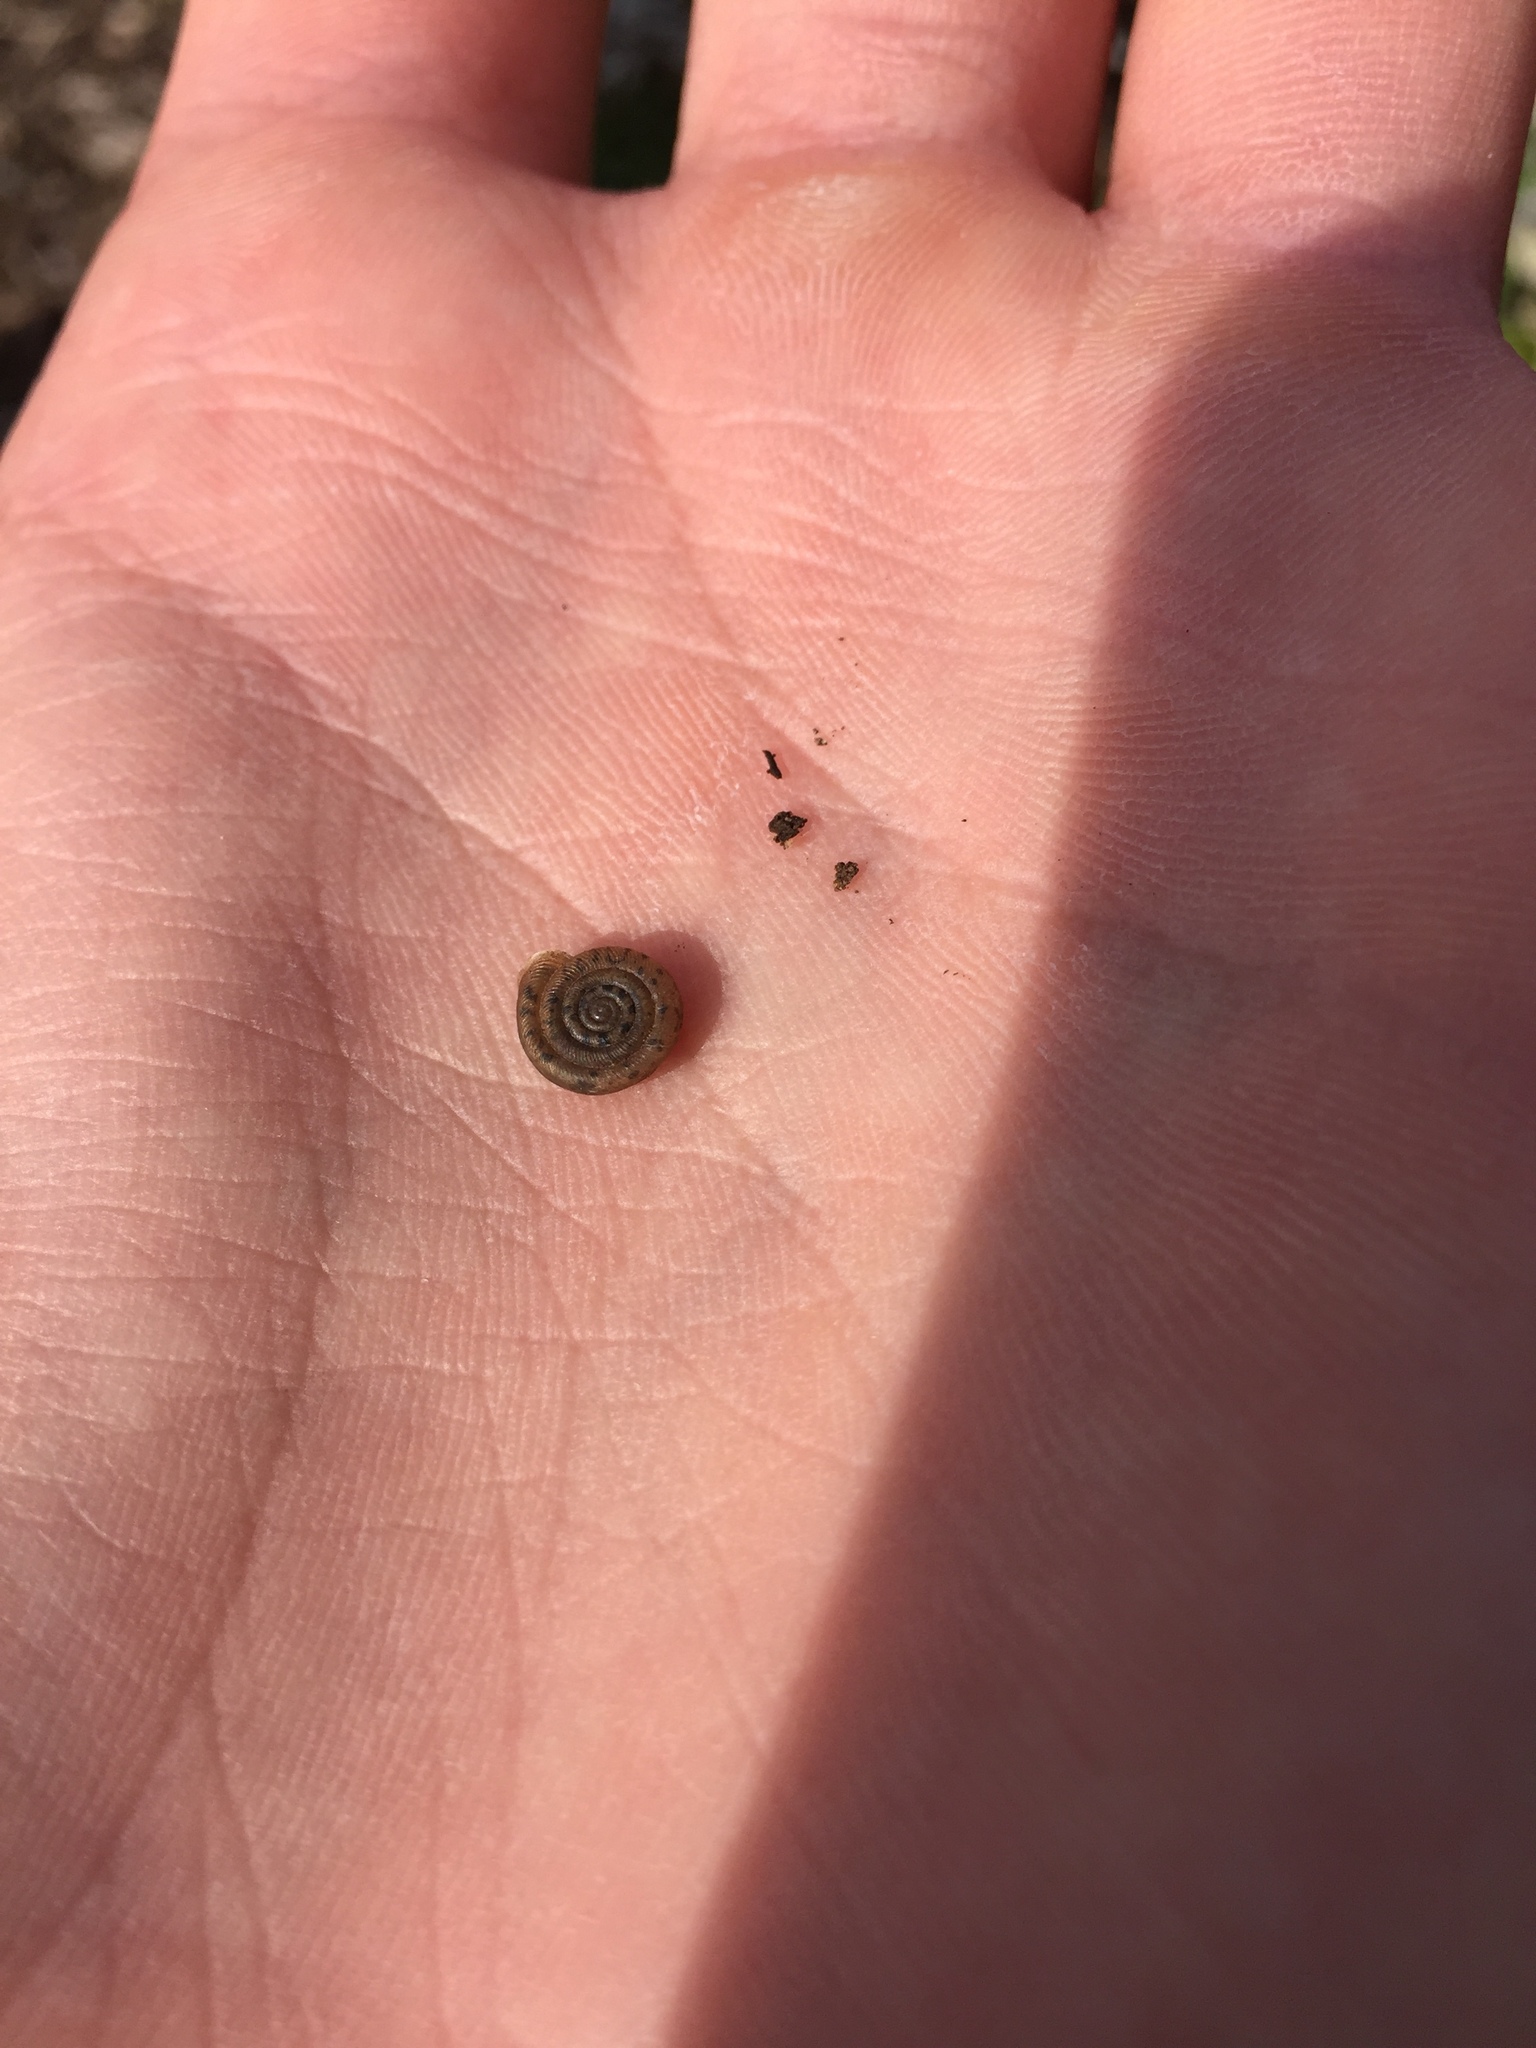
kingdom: Animalia
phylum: Mollusca
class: Gastropoda
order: Stylommatophora
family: Polygyridae
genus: Polygyra
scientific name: Polygyra cereolus
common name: Southern flatcone snail
